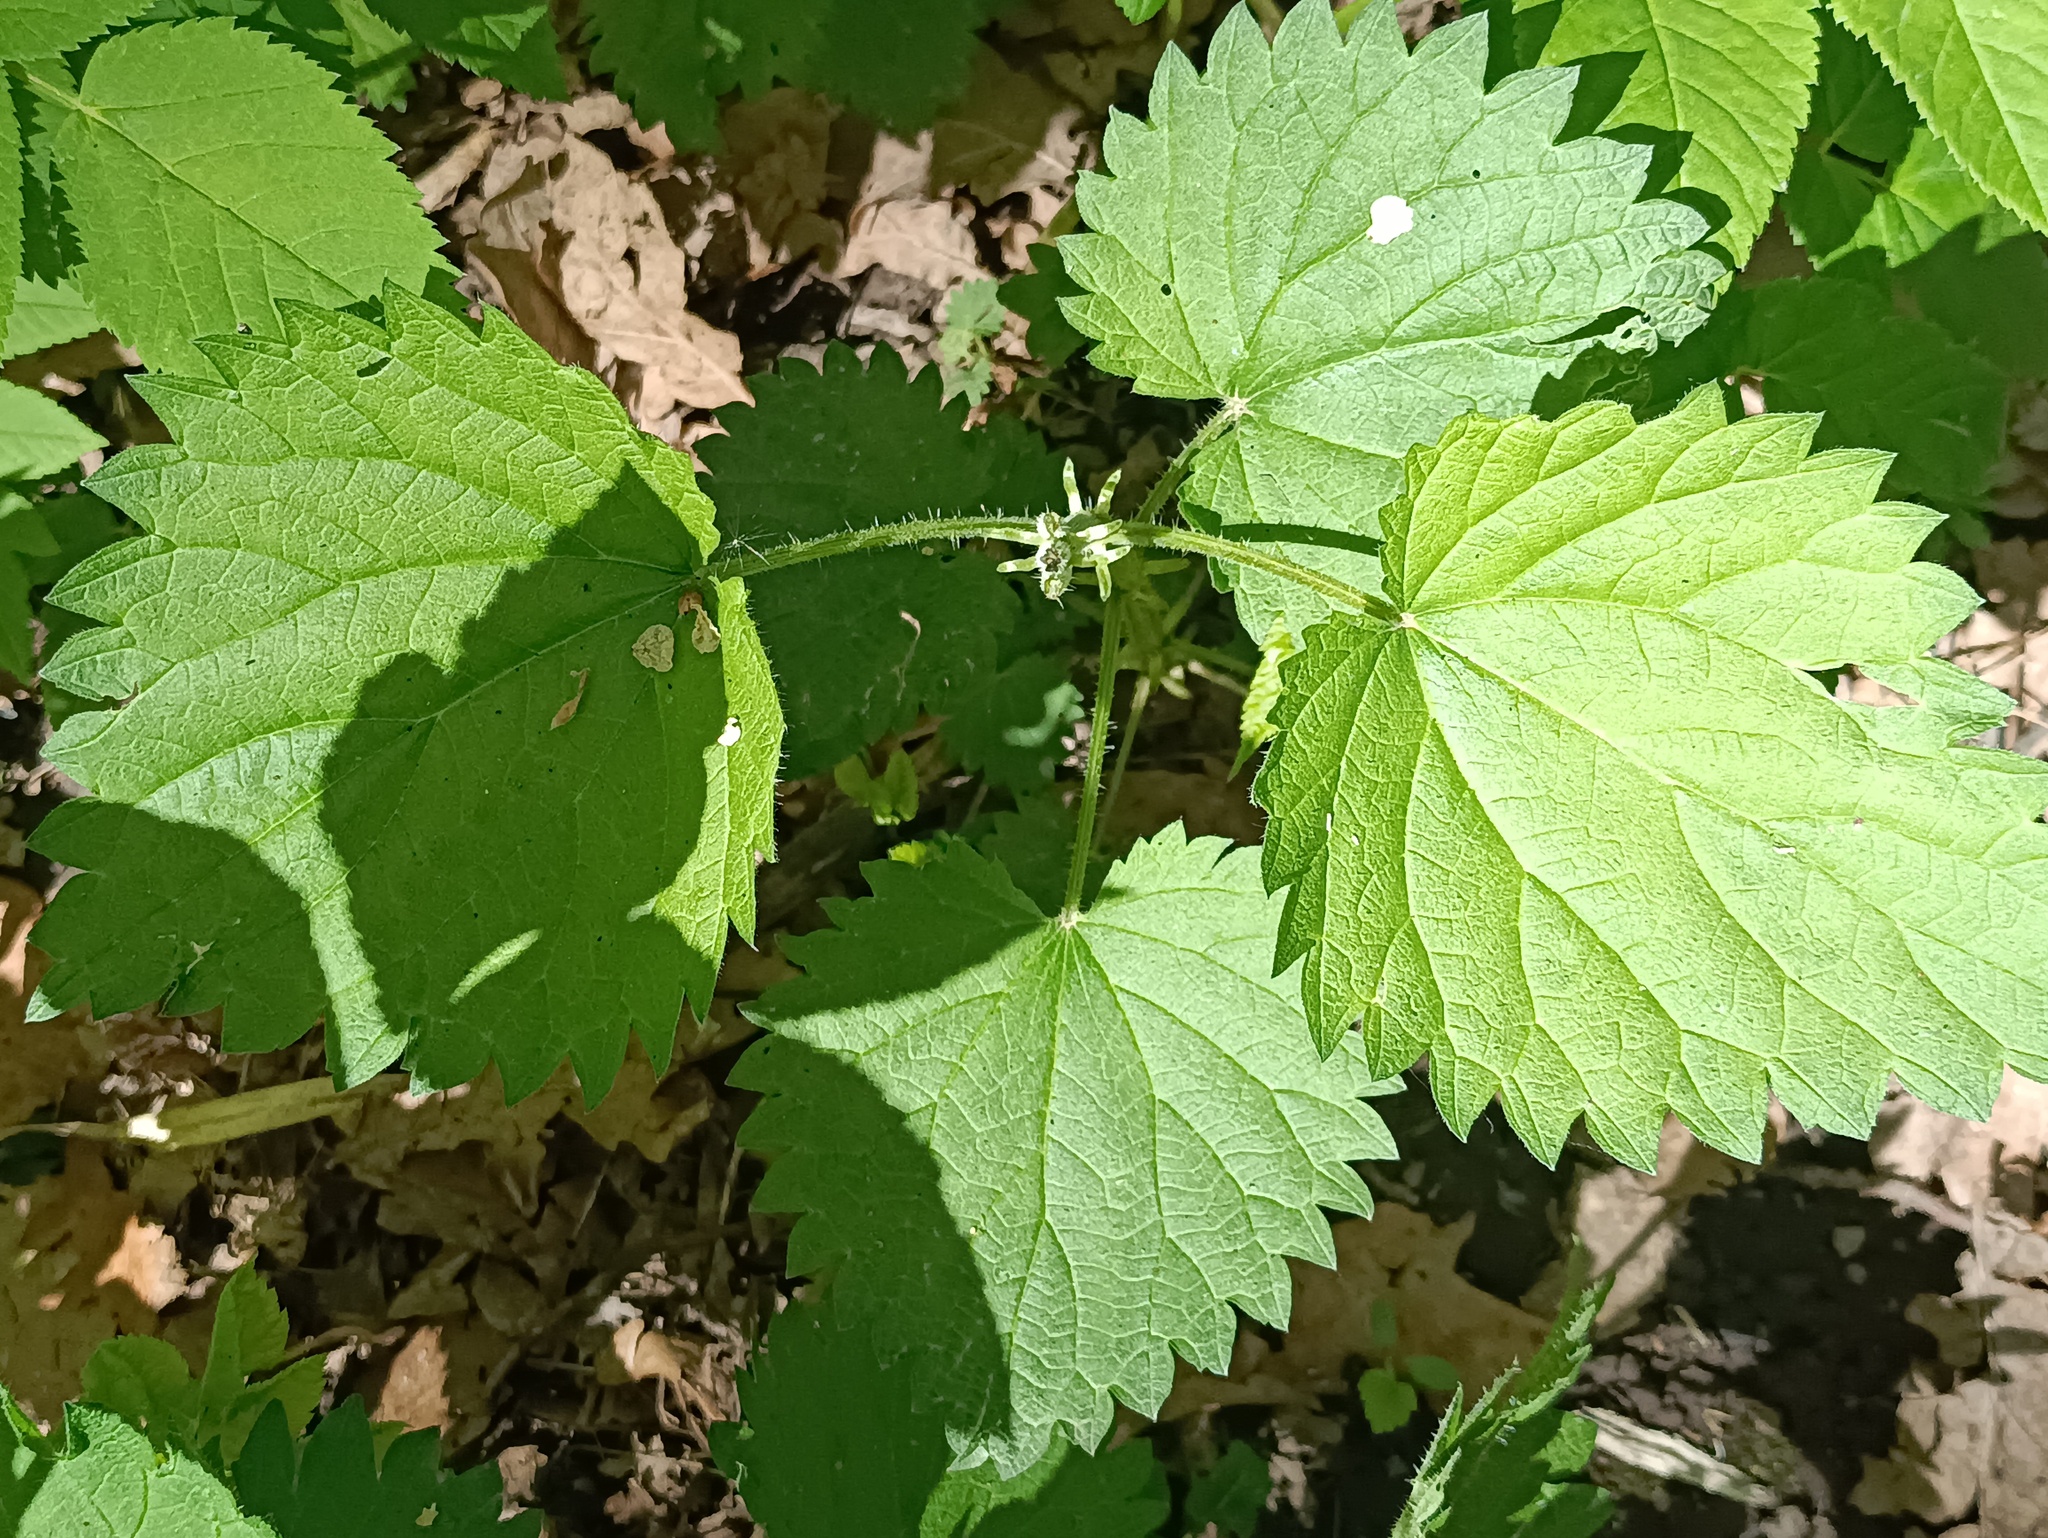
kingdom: Plantae
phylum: Tracheophyta
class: Magnoliopsida
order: Rosales
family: Urticaceae
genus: Urtica
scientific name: Urtica dioica
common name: Common nettle
